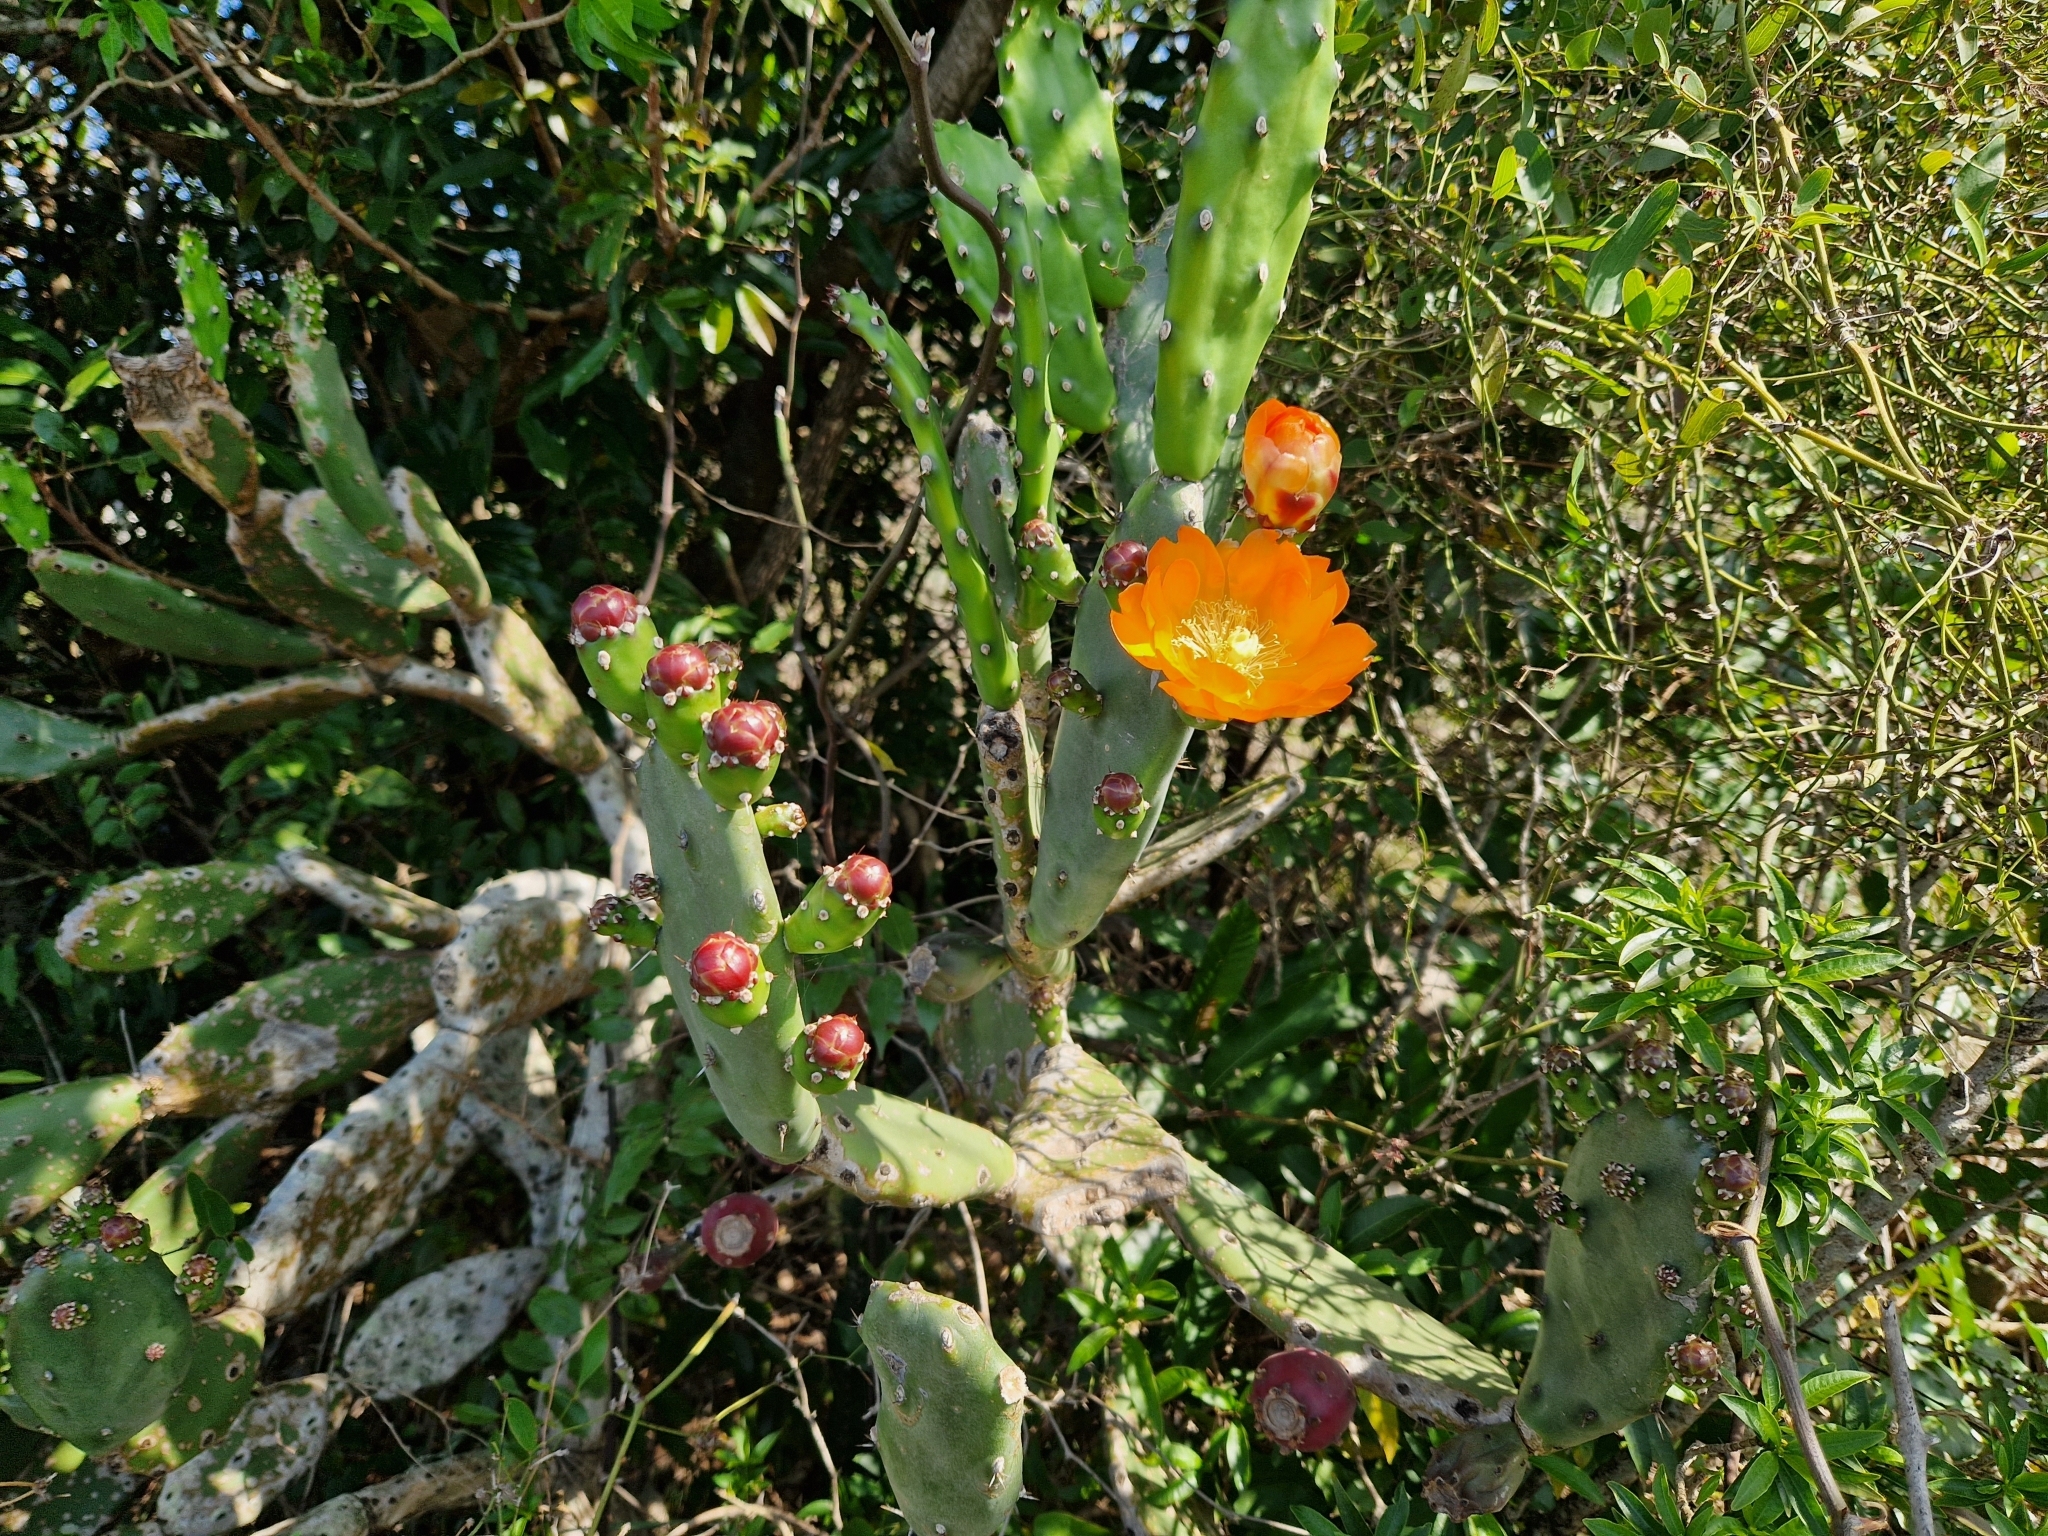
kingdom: Plantae
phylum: Tracheophyta
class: Magnoliopsida
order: Caryophyllales
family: Cactaceae
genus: Opuntia
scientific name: Opuntia elata
